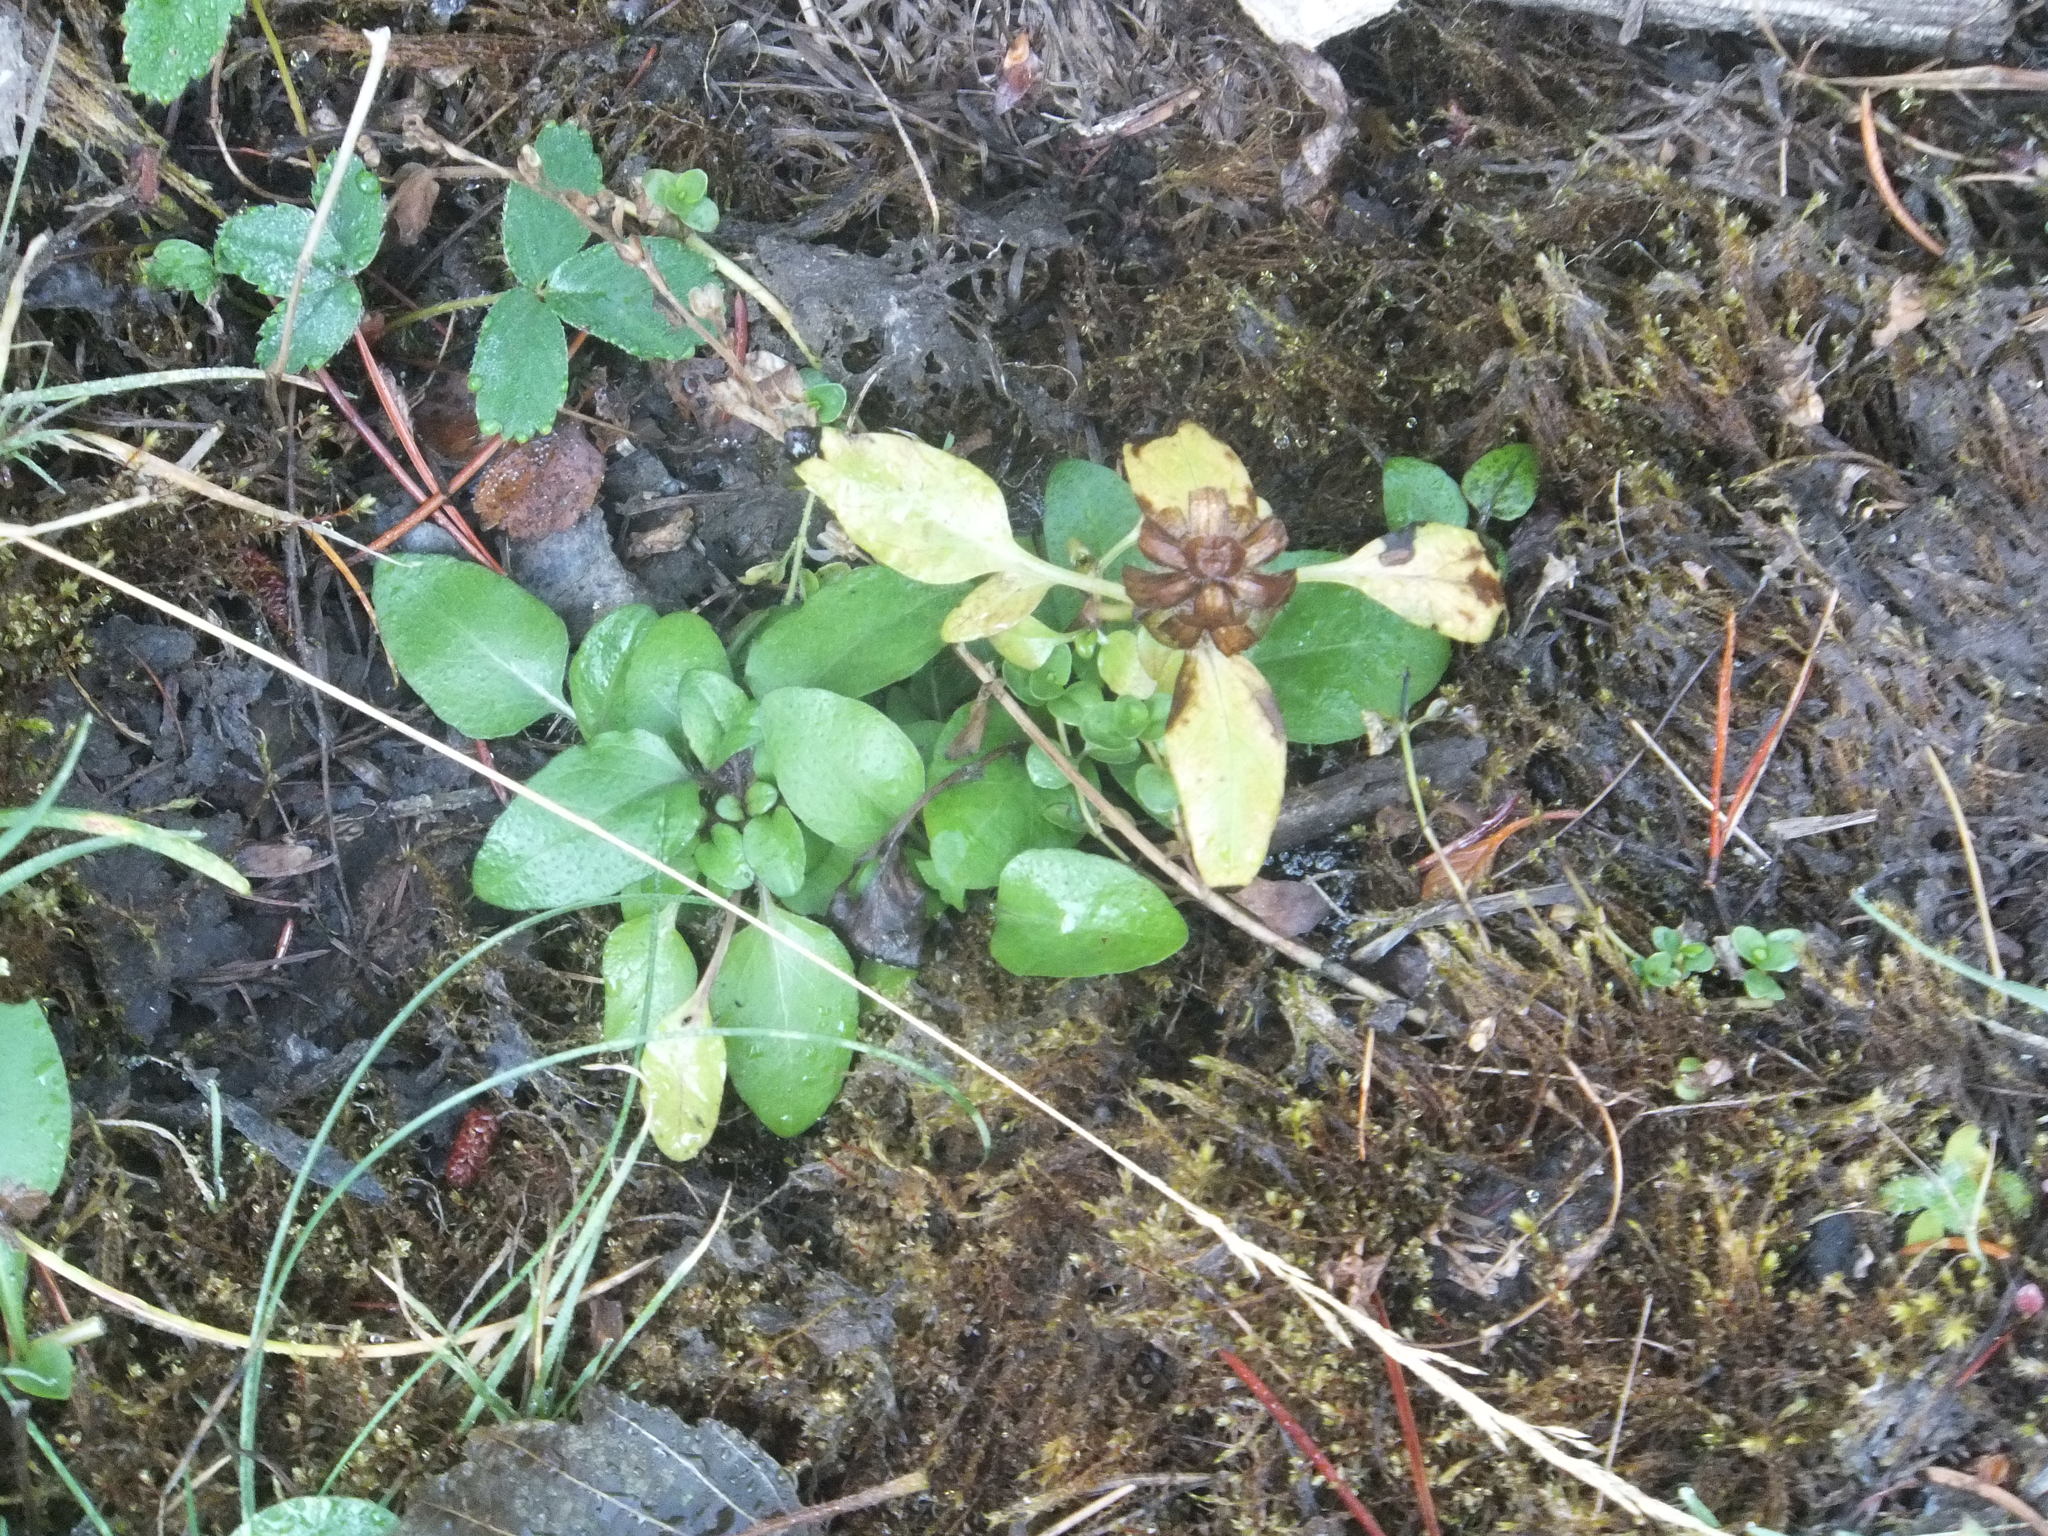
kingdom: Plantae
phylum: Tracheophyta
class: Magnoliopsida
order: Lamiales
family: Lamiaceae
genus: Prunella
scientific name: Prunella vulgaris
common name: Heal-all
